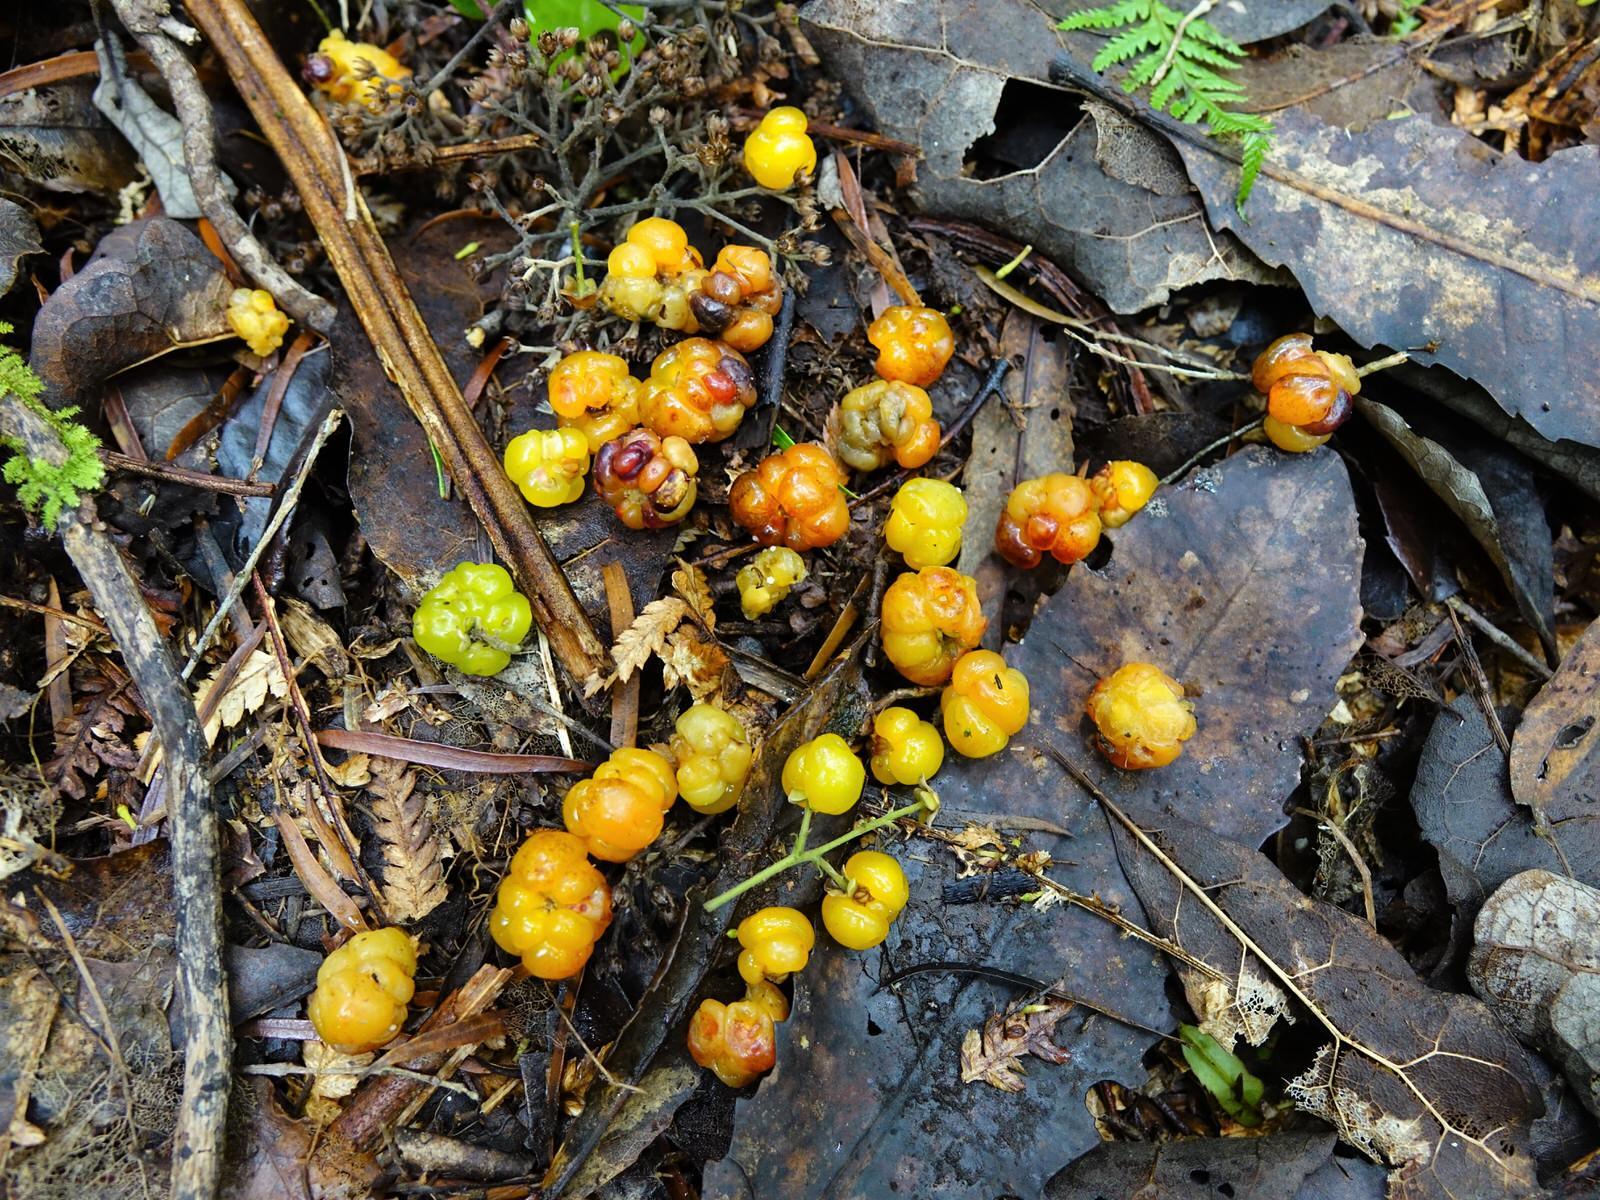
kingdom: Plantae
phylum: Tracheophyta
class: Magnoliopsida
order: Rosales
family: Rosaceae
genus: Rubus
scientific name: Rubus australis
